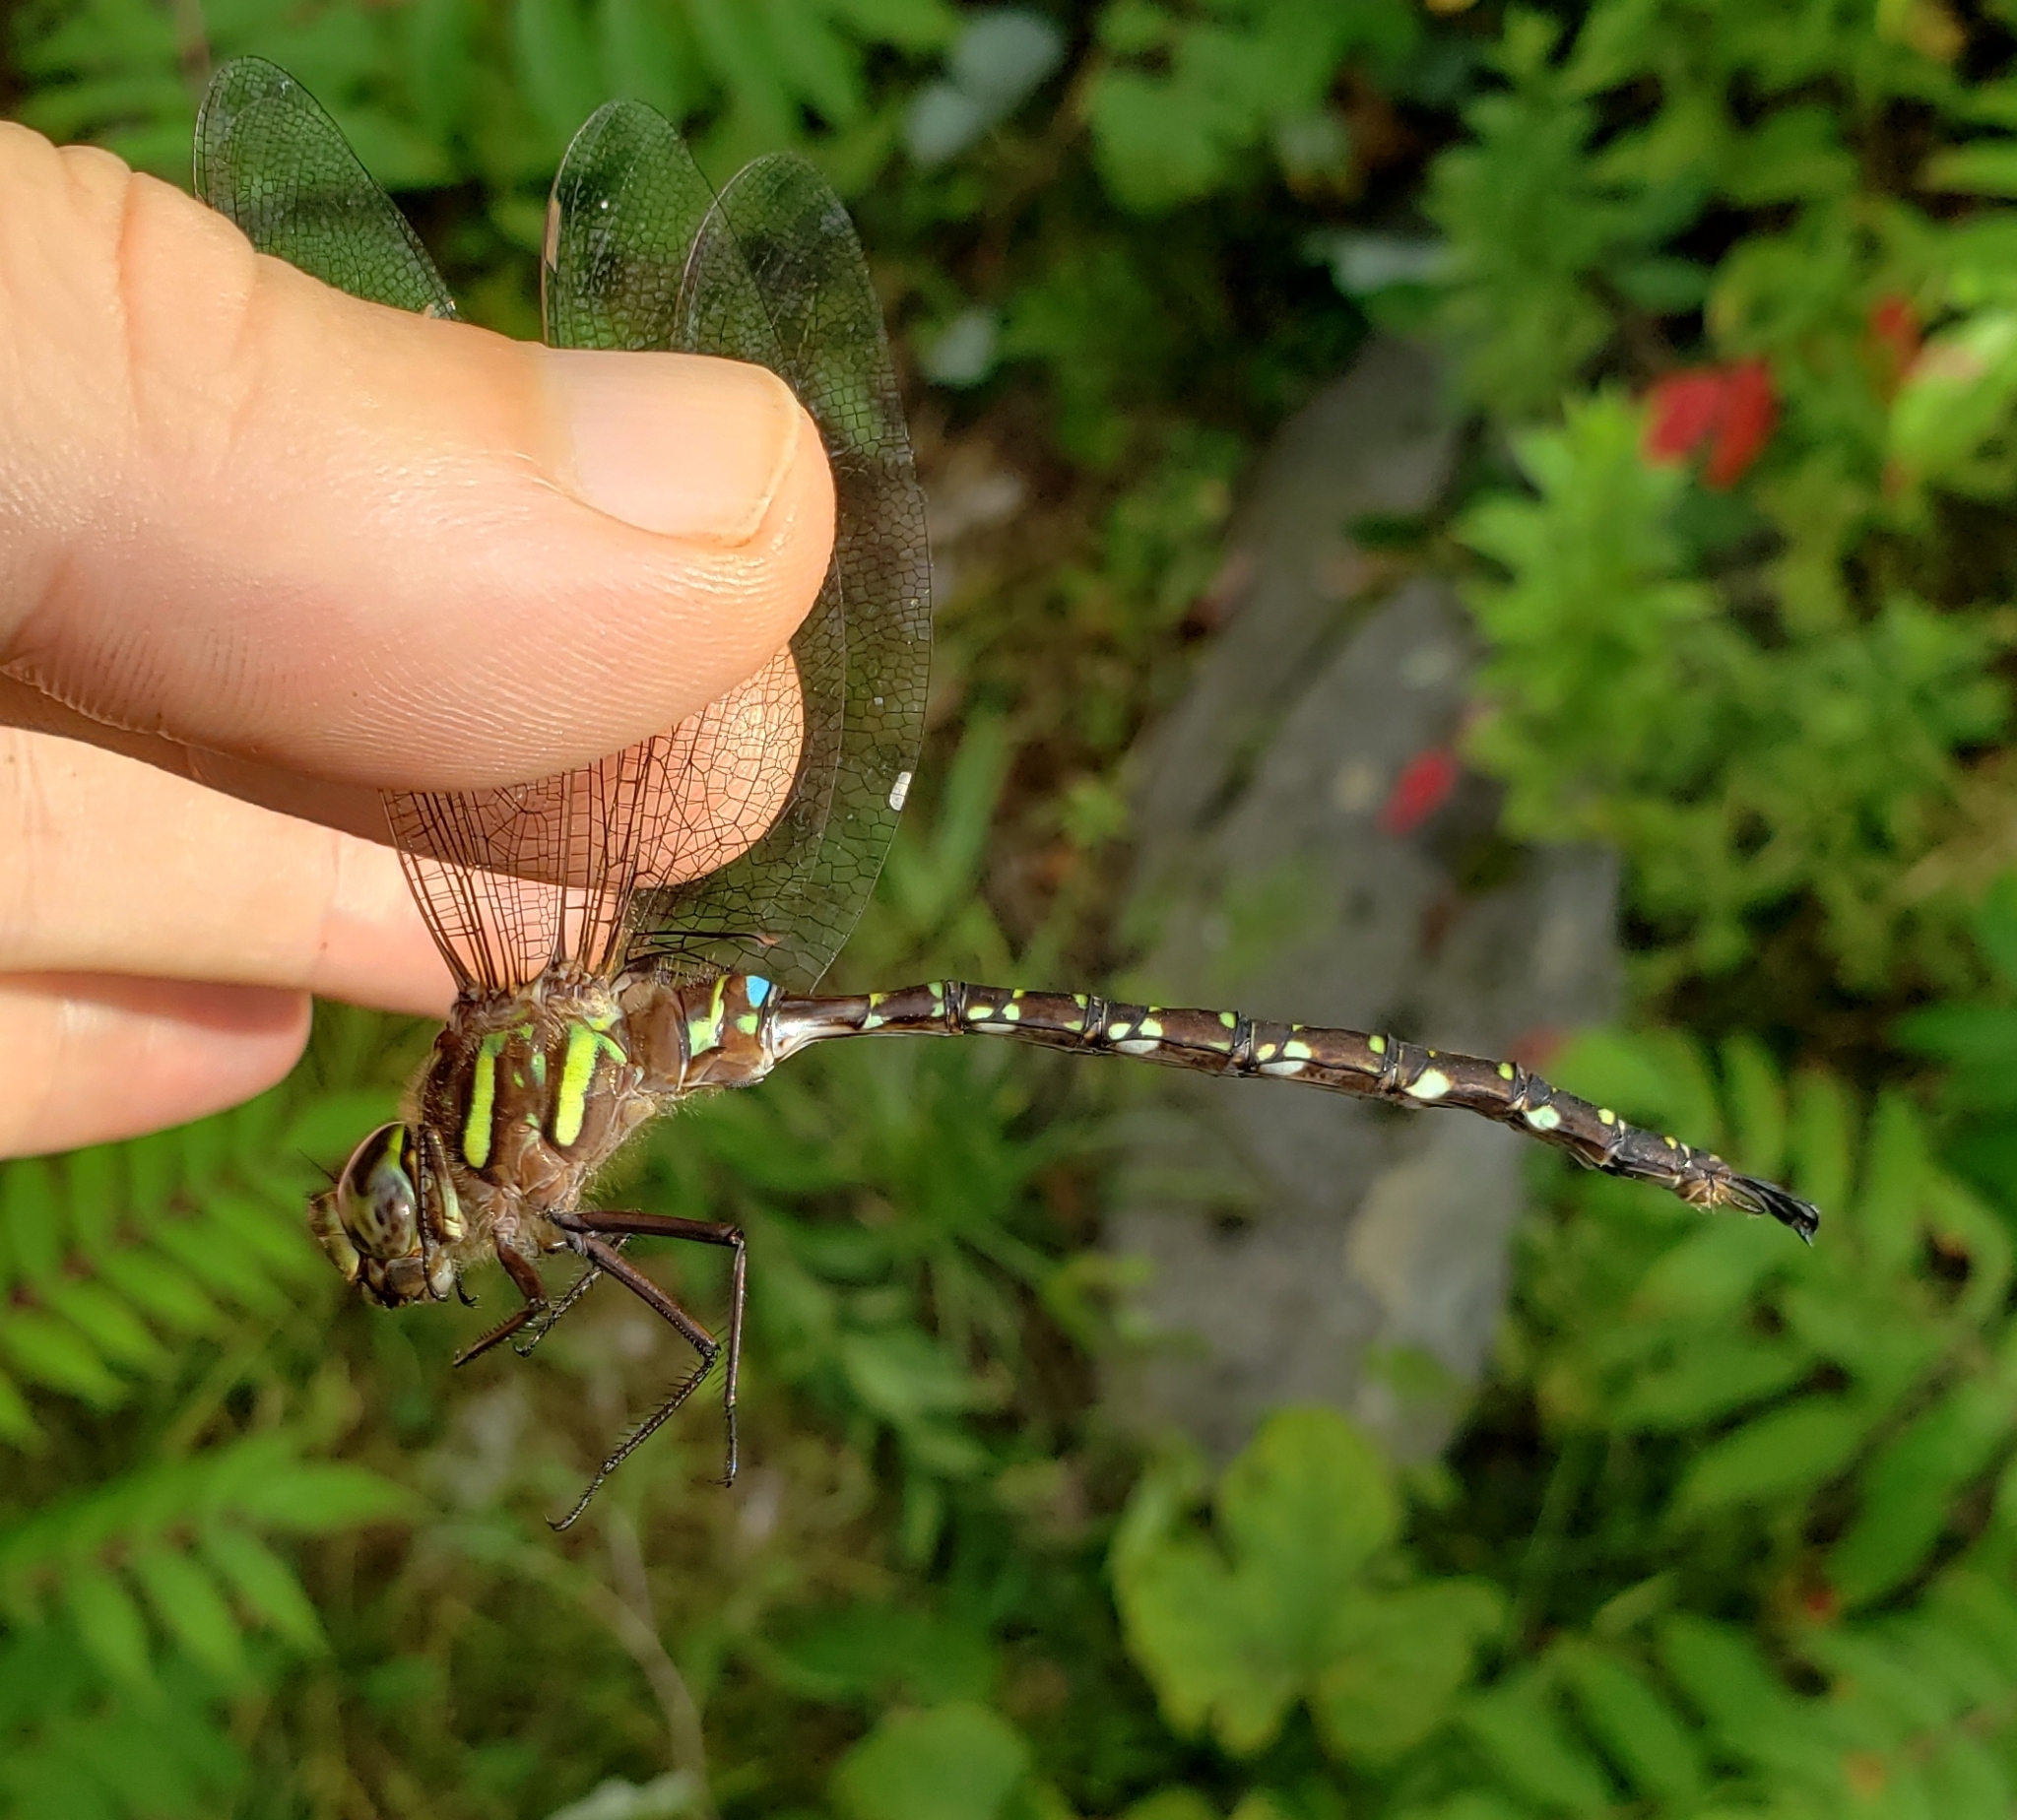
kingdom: Animalia
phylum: Arthropoda
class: Insecta
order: Odonata
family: Aeshnidae
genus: Aeshna
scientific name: Aeshna umbrosa
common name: Shadow darner
